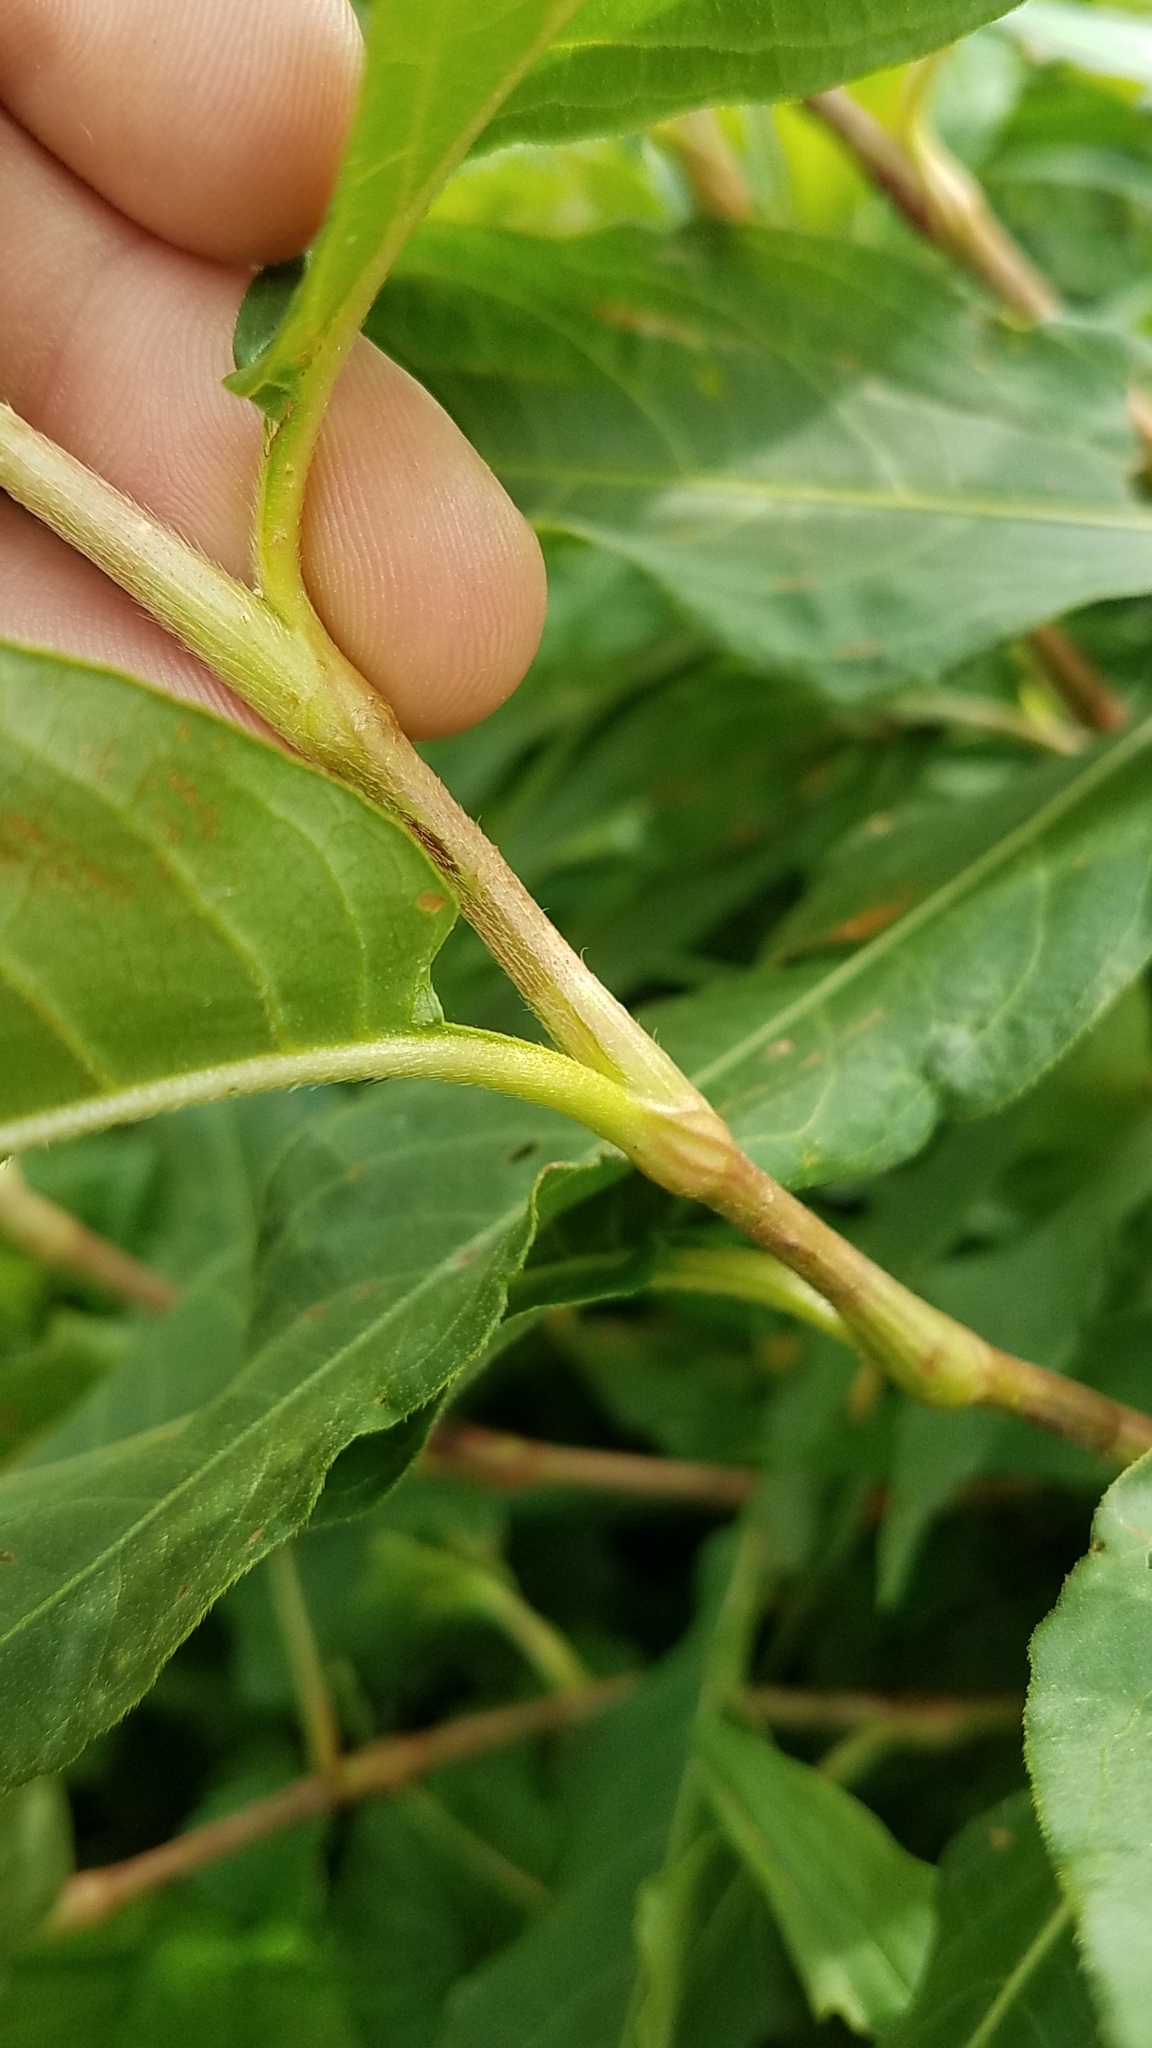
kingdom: Plantae
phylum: Tracheophyta
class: Magnoliopsida
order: Caryophyllales
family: Polygonaceae
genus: Persicaria
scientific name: Persicaria amphibia
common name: Amphibious bistort
